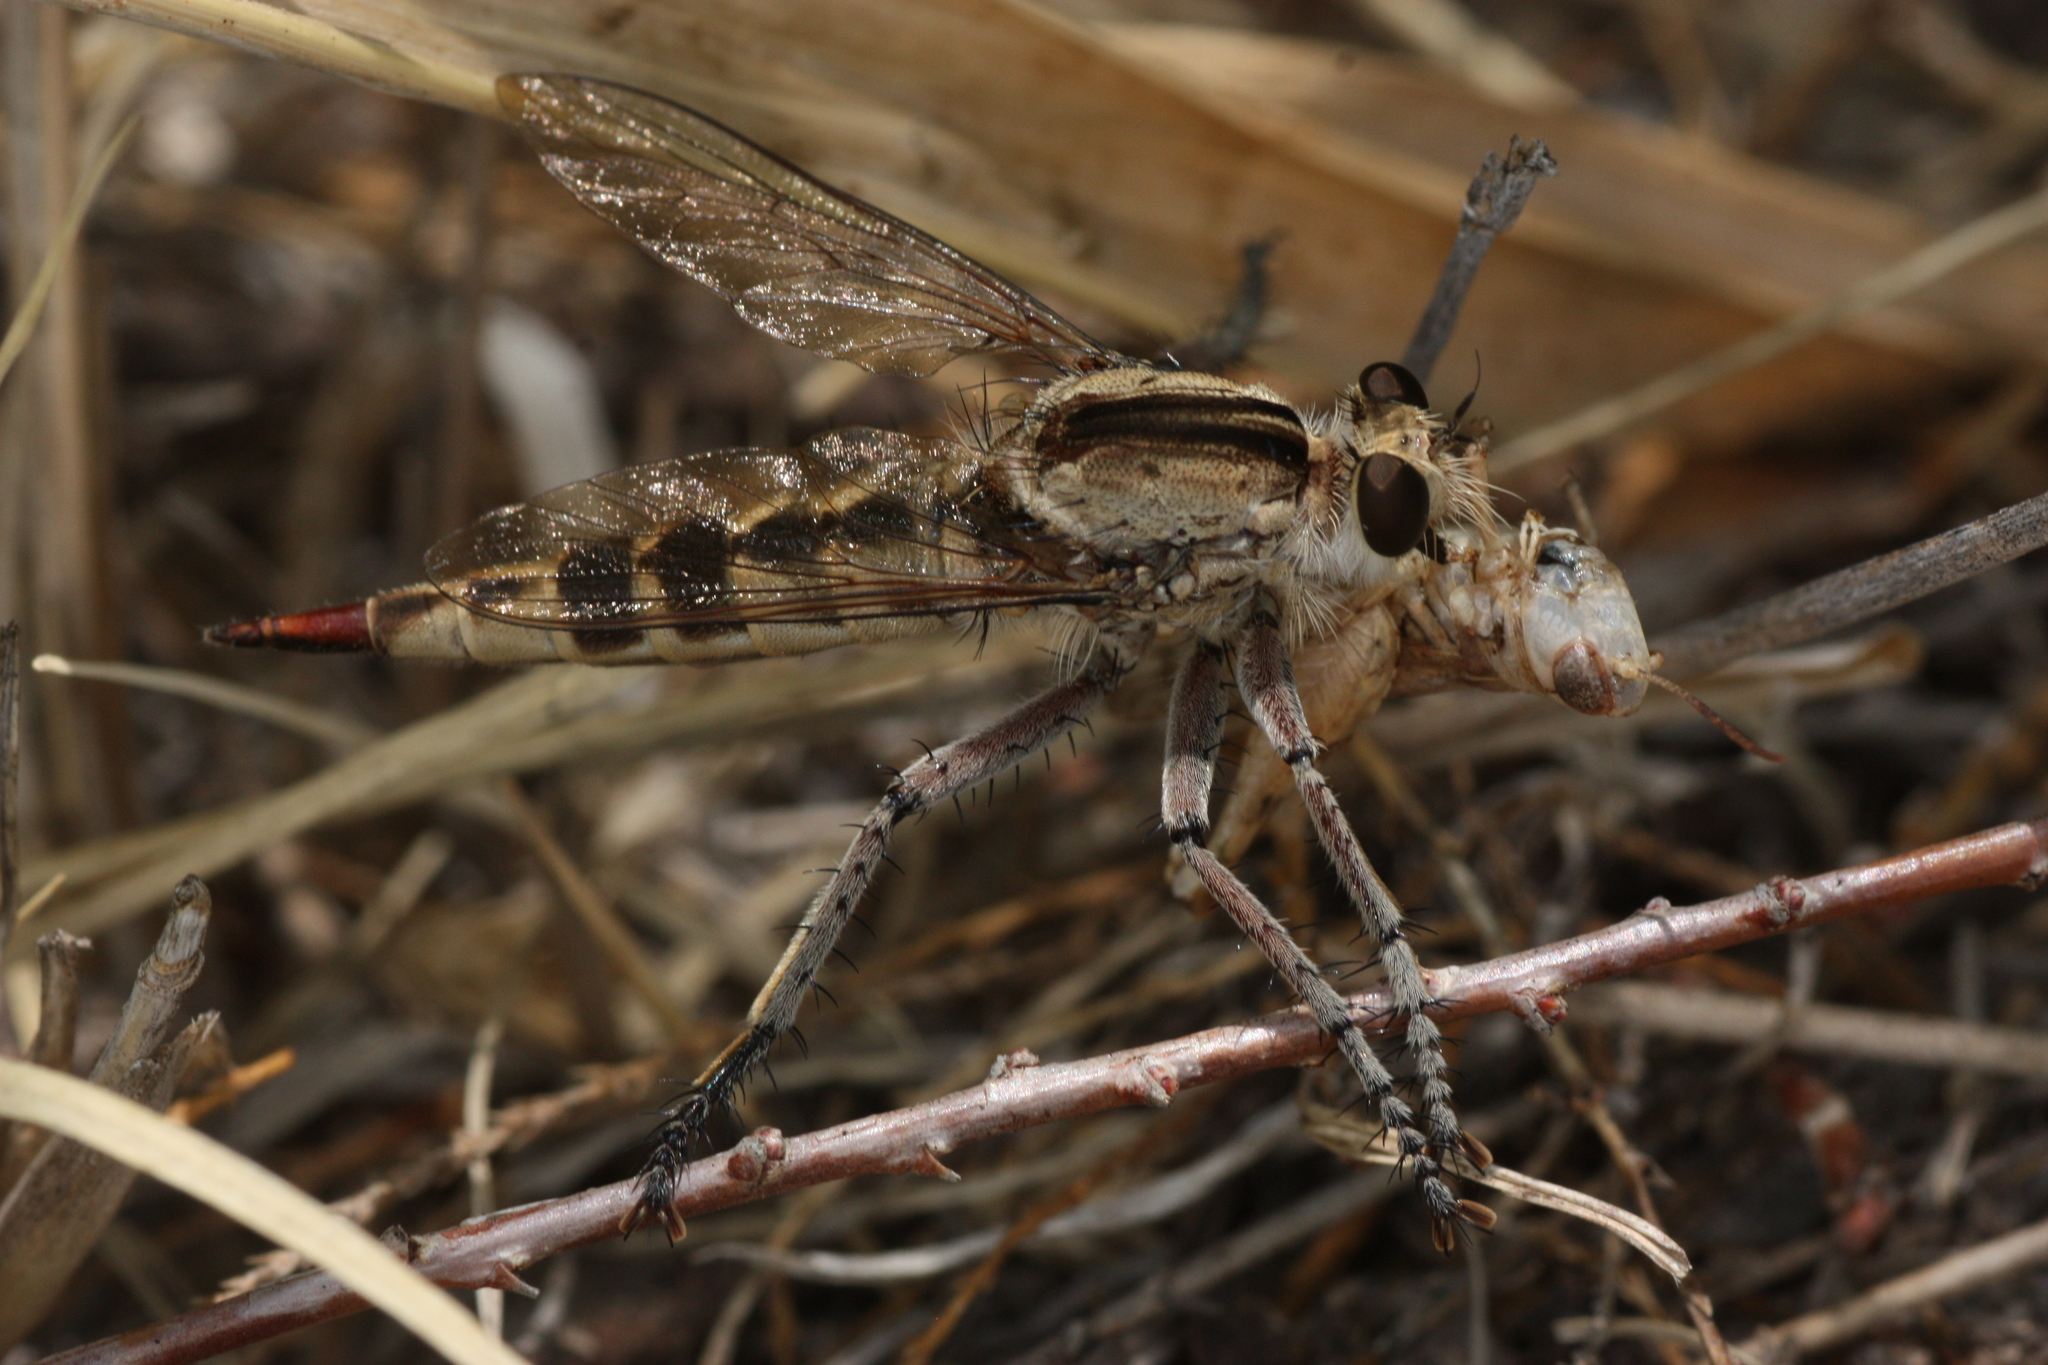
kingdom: Animalia
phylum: Arthropoda
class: Insecta
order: Diptera
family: Asilidae
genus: Triorla
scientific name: Triorla interrupta
